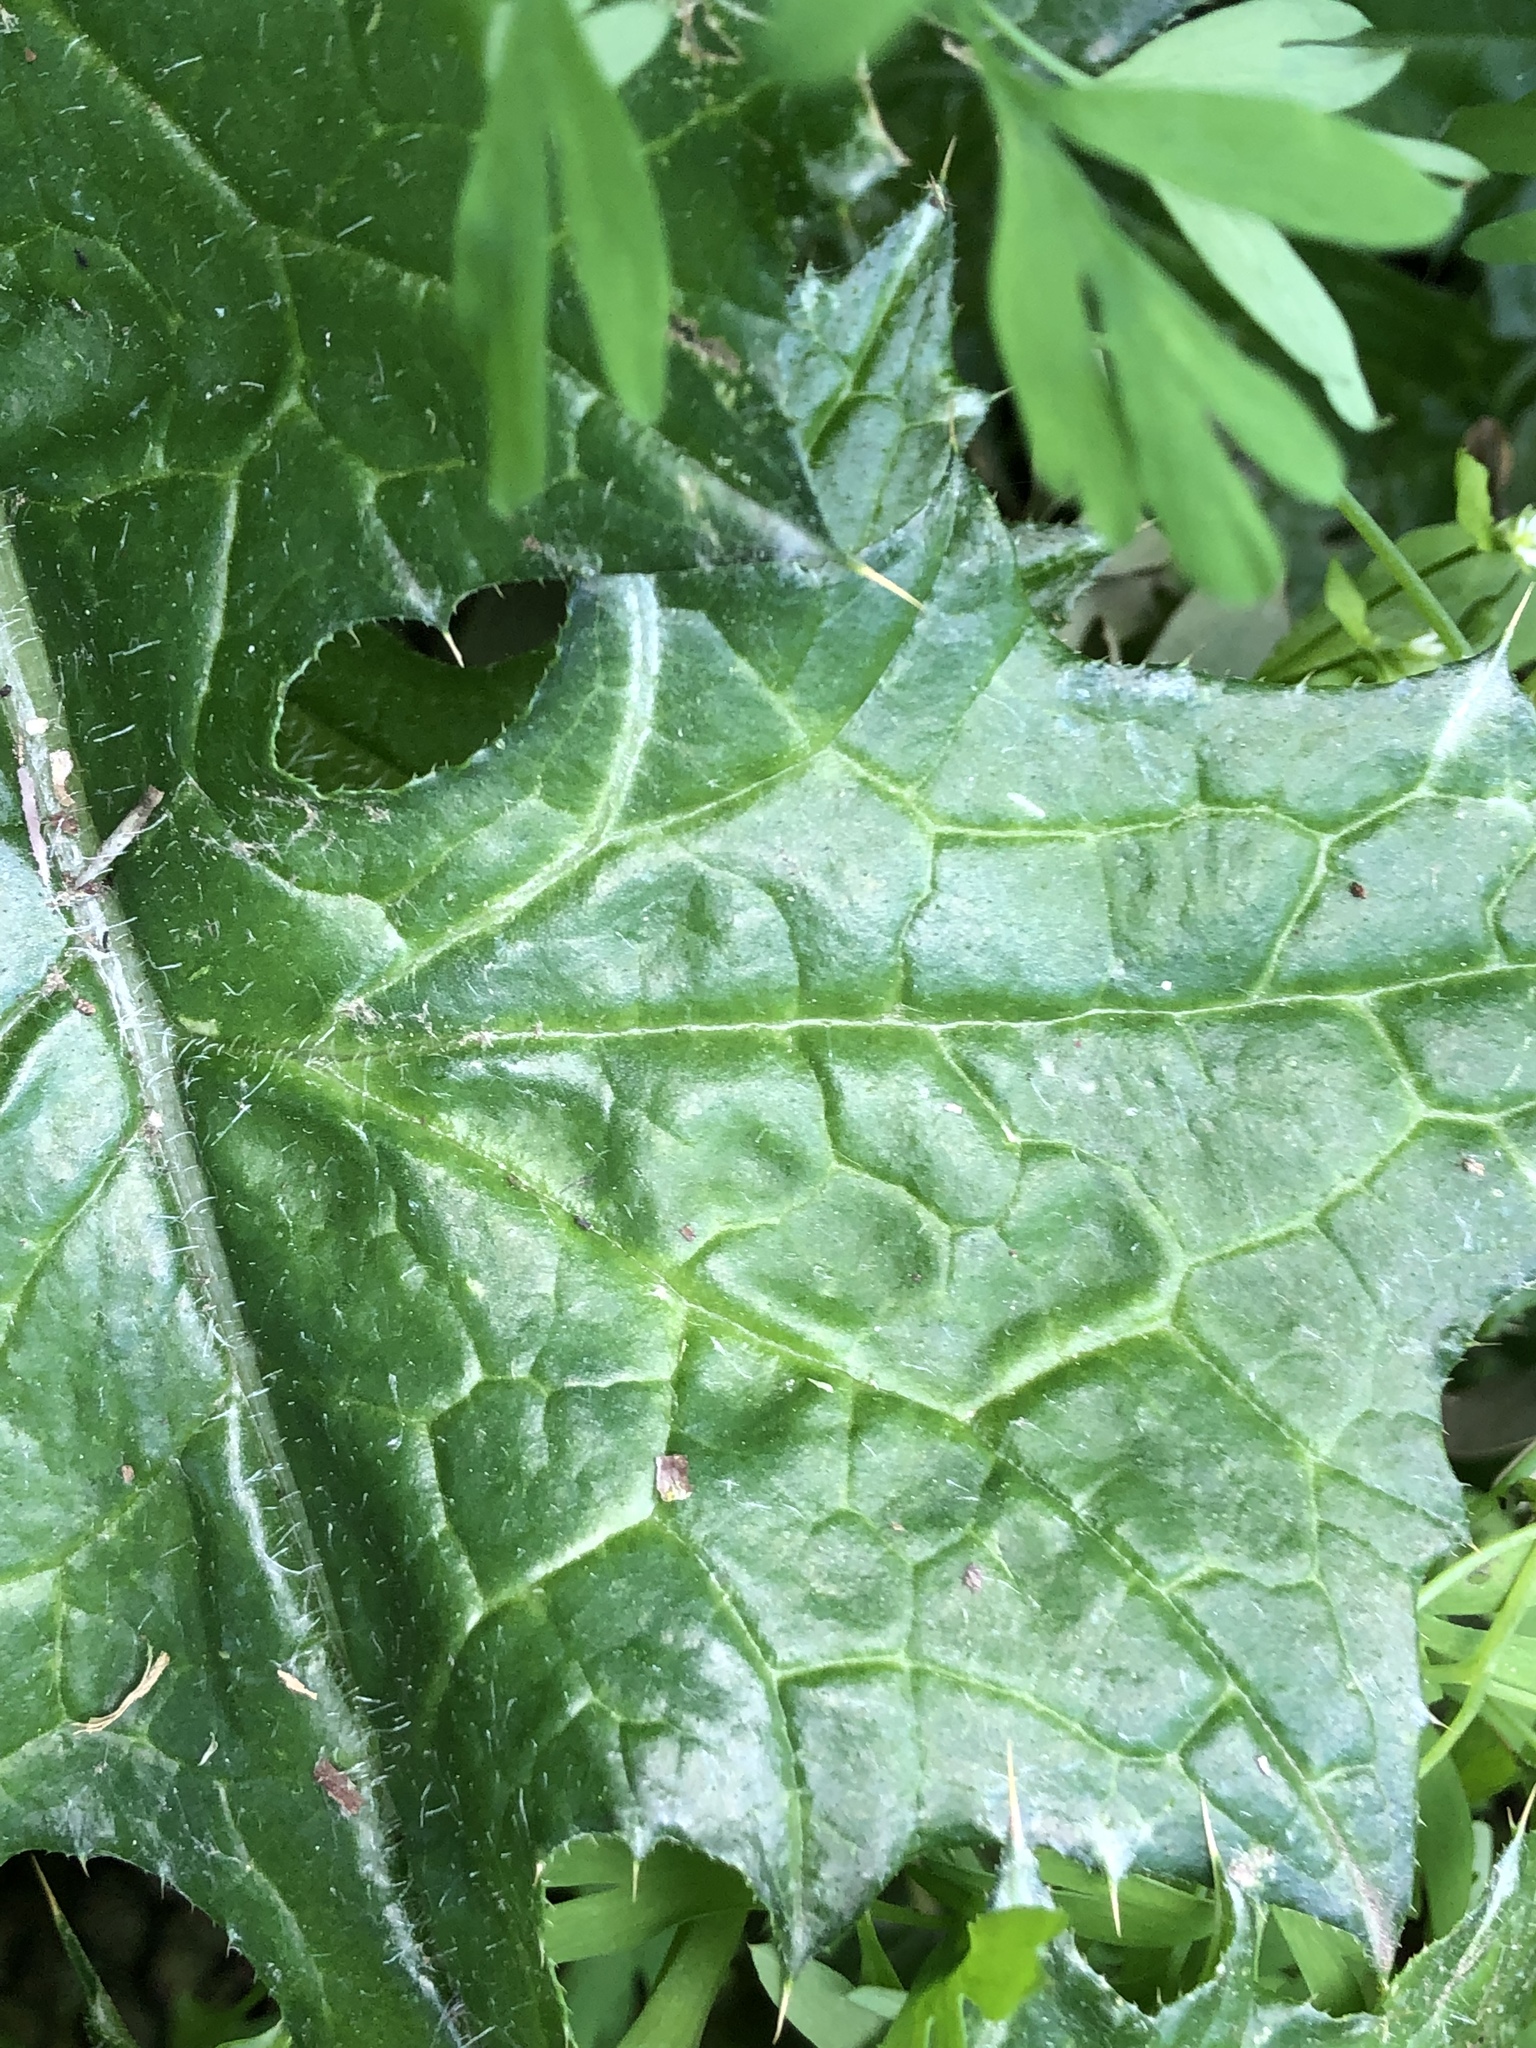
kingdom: Plantae
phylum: Tracheophyta
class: Magnoliopsida
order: Asterales
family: Asteraceae
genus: Carduus
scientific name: Carduus pycnocephalus
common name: Plymouth thistle
